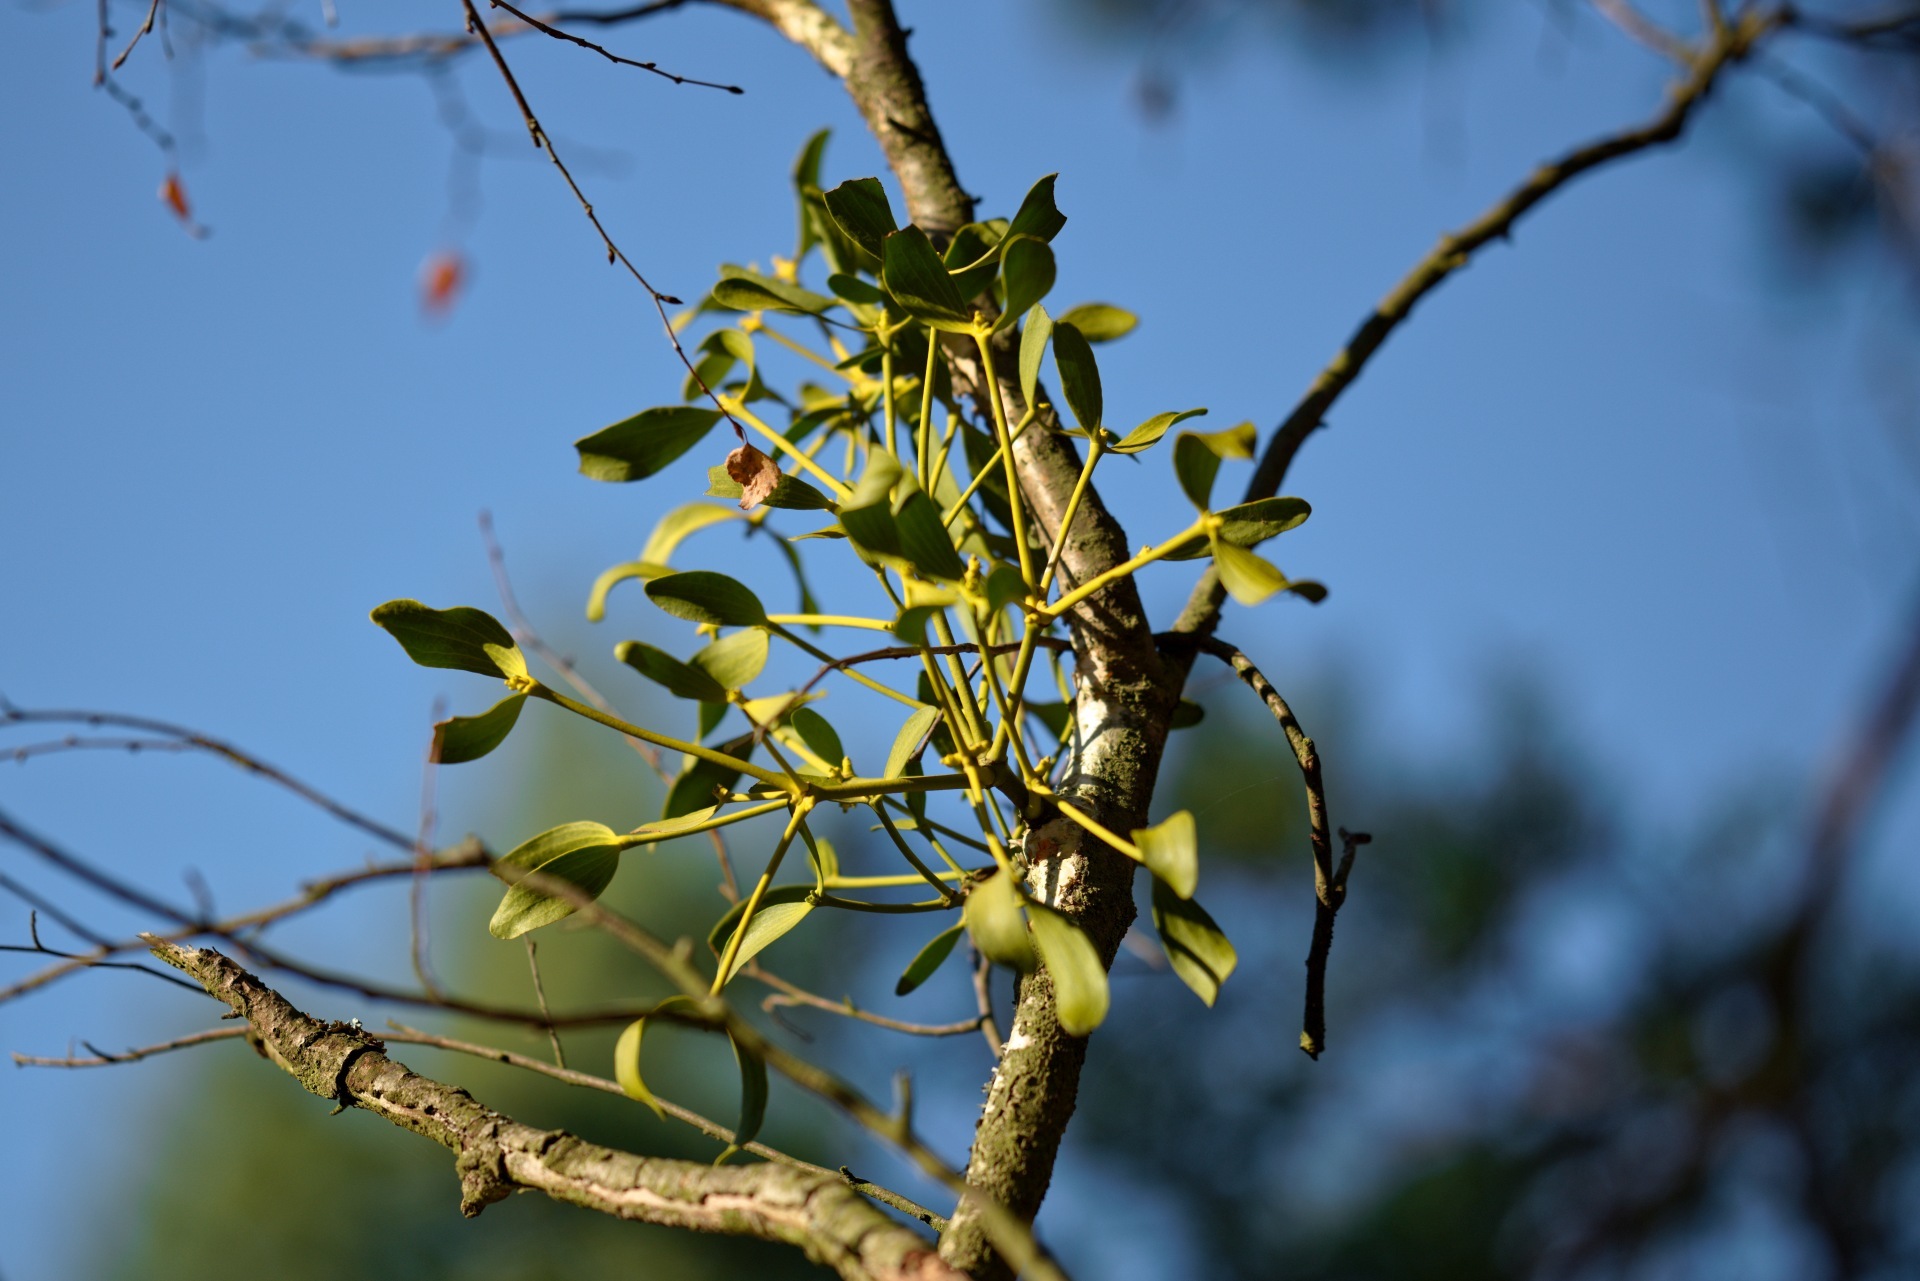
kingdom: Plantae
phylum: Tracheophyta
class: Magnoliopsida
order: Santalales
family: Viscaceae
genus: Viscum
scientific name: Viscum album
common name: Mistletoe
